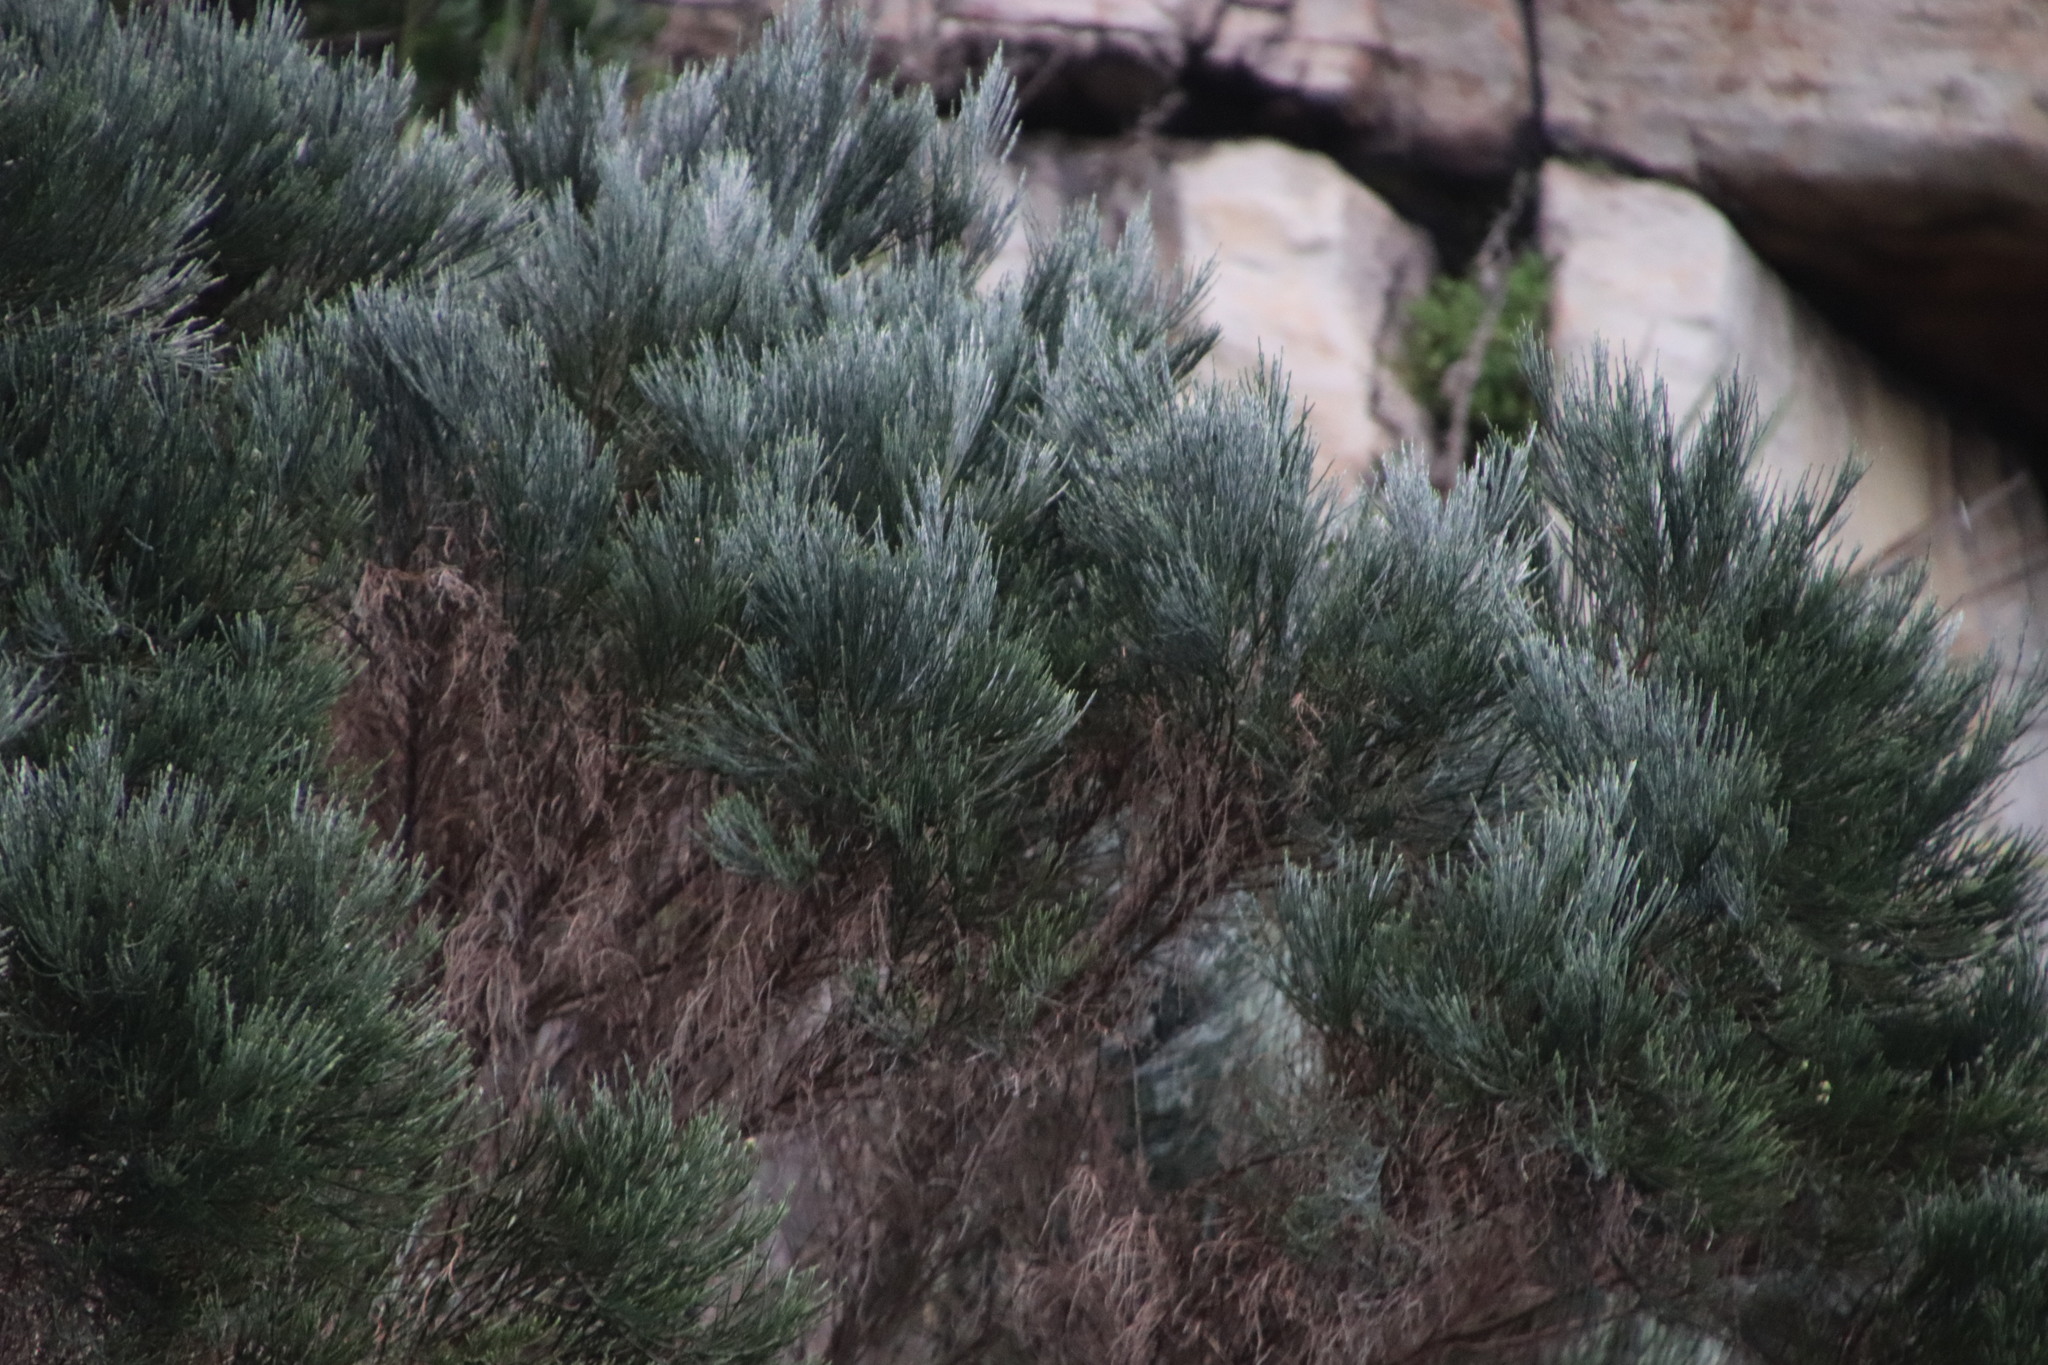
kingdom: Plantae
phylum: Tracheophyta
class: Magnoliopsida
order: Fabales
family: Fabaceae
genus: Psoralea
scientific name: Psoralea aphylla
